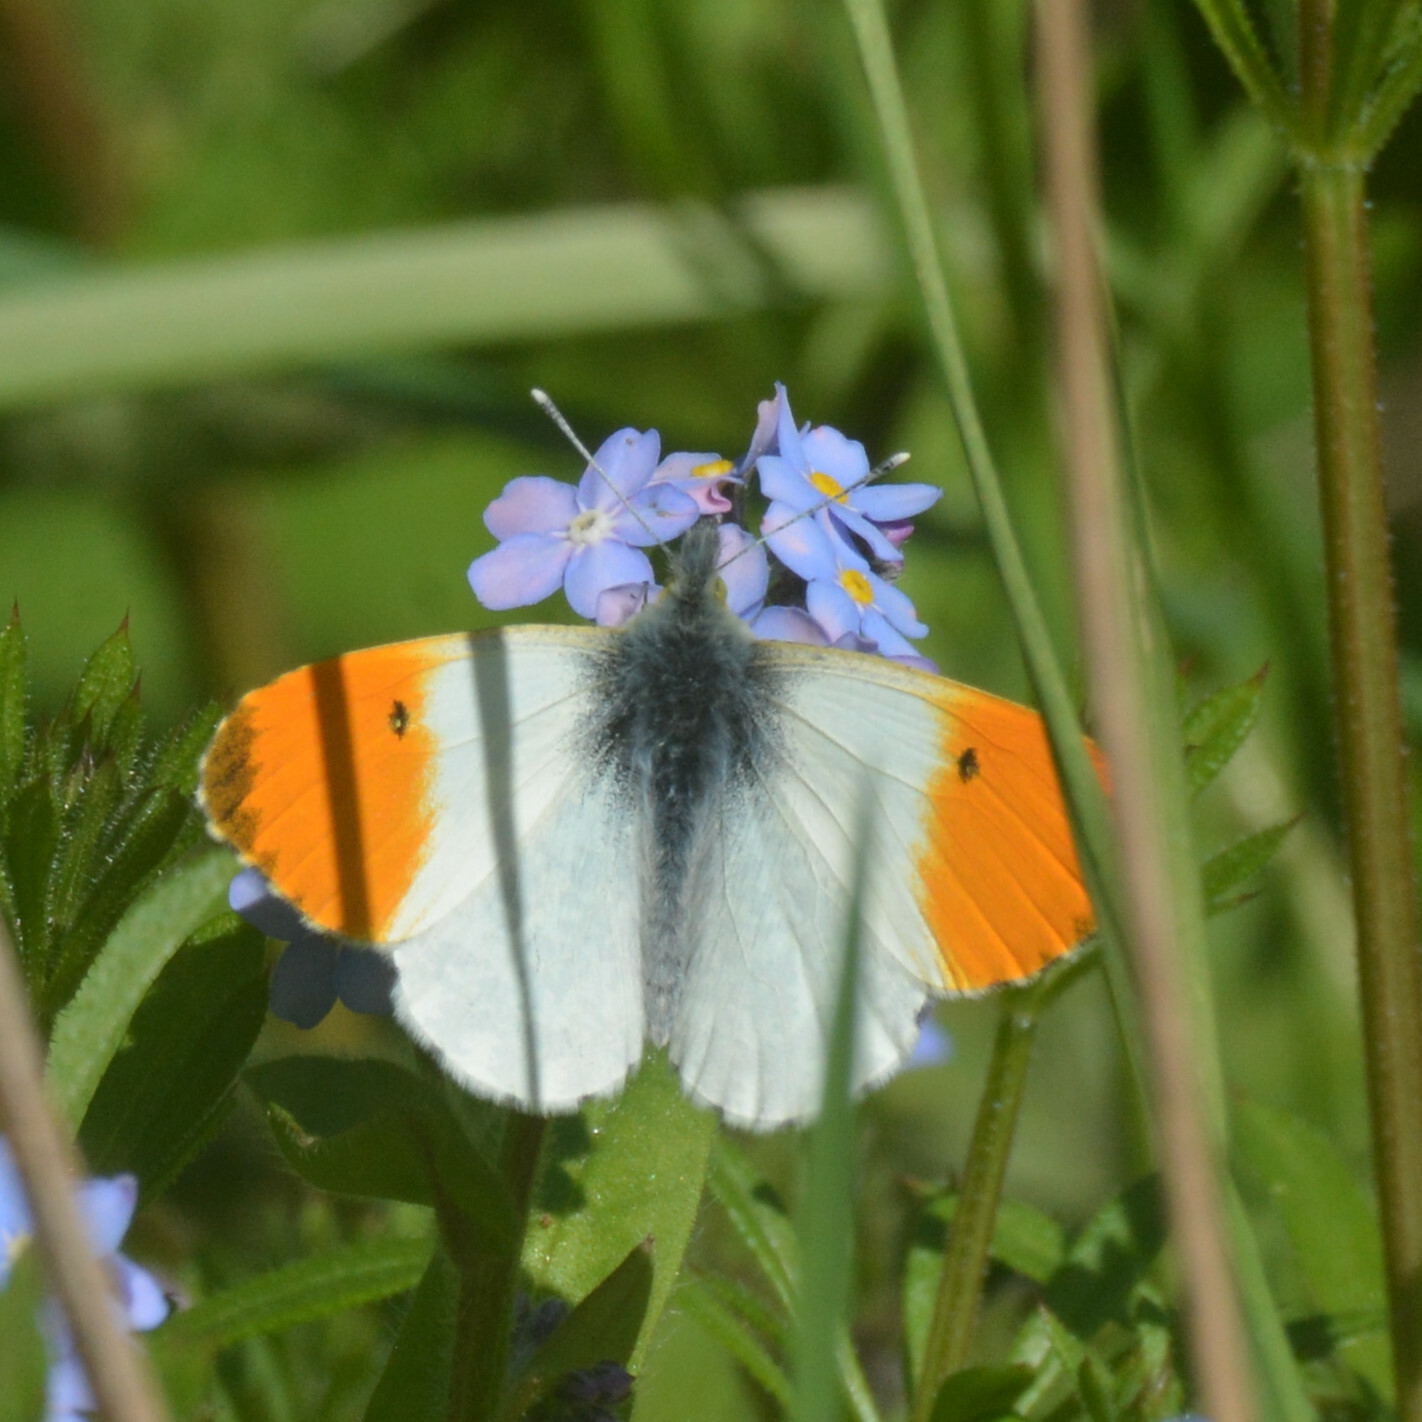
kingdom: Animalia
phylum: Arthropoda
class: Insecta
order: Lepidoptera
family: Pieridae
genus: Anthocharis
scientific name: Anthocharis cardamines
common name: Orange-tip
